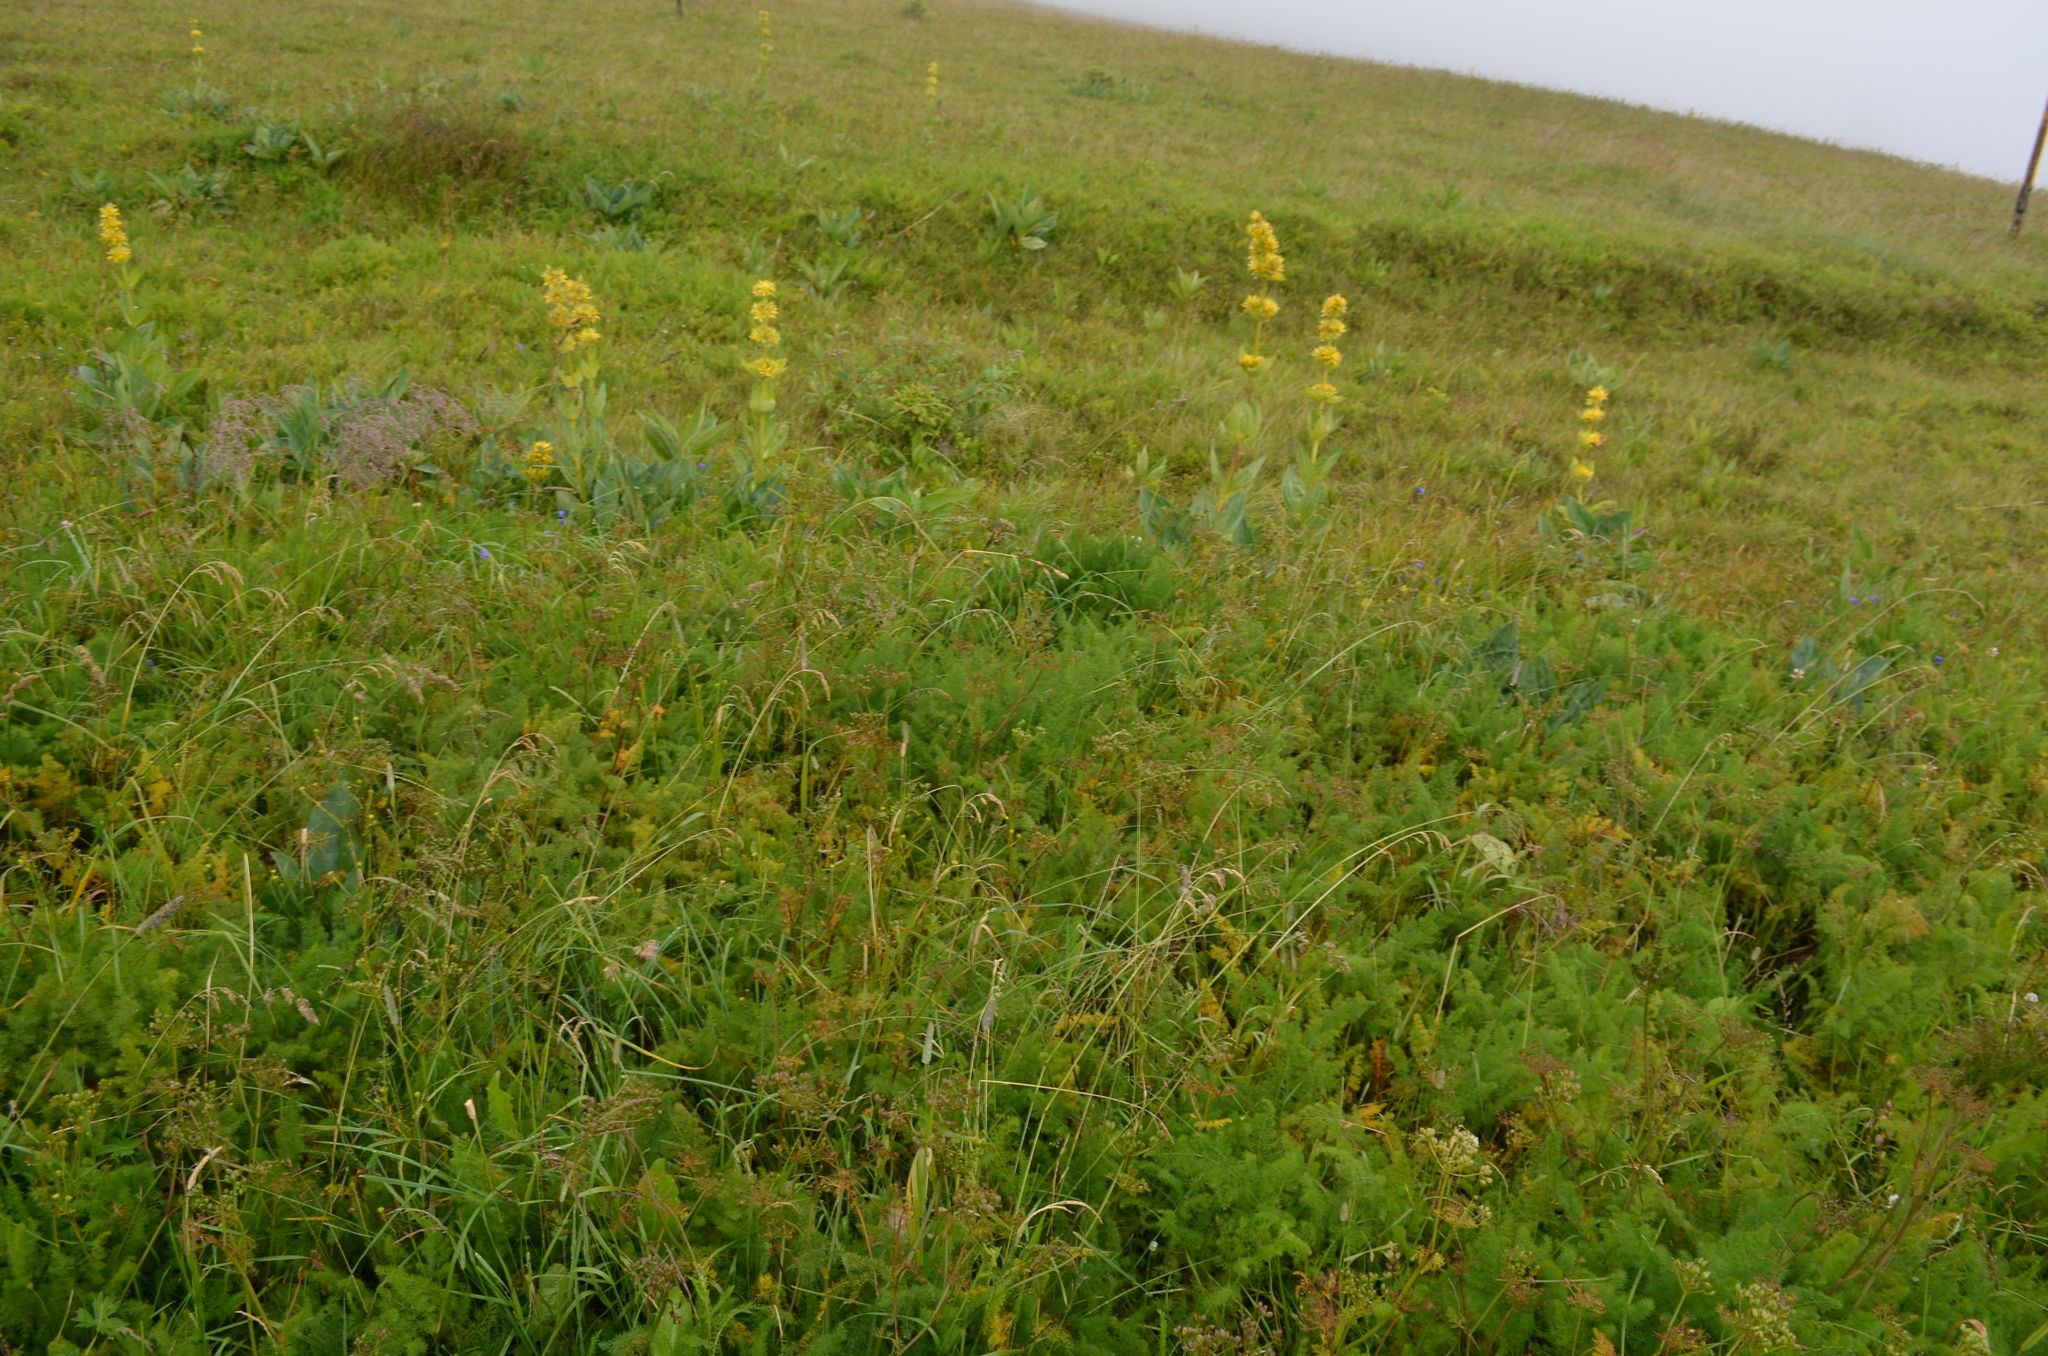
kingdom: Plantae
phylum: Tracheophyta
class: Magnoliopsida
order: Gentianales
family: Gentianaceae
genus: Gentiana
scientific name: Gentiana lutea
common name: Great yellow gentian
